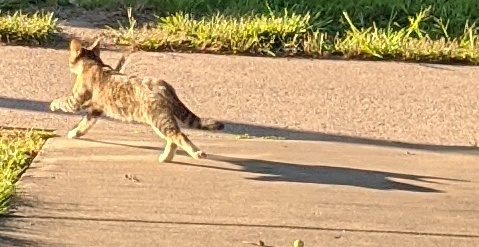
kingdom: Animalia
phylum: Chordata
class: Mammalia
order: Carnivora
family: Felidae
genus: Felis
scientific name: Felis catus
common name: Domestic cat
